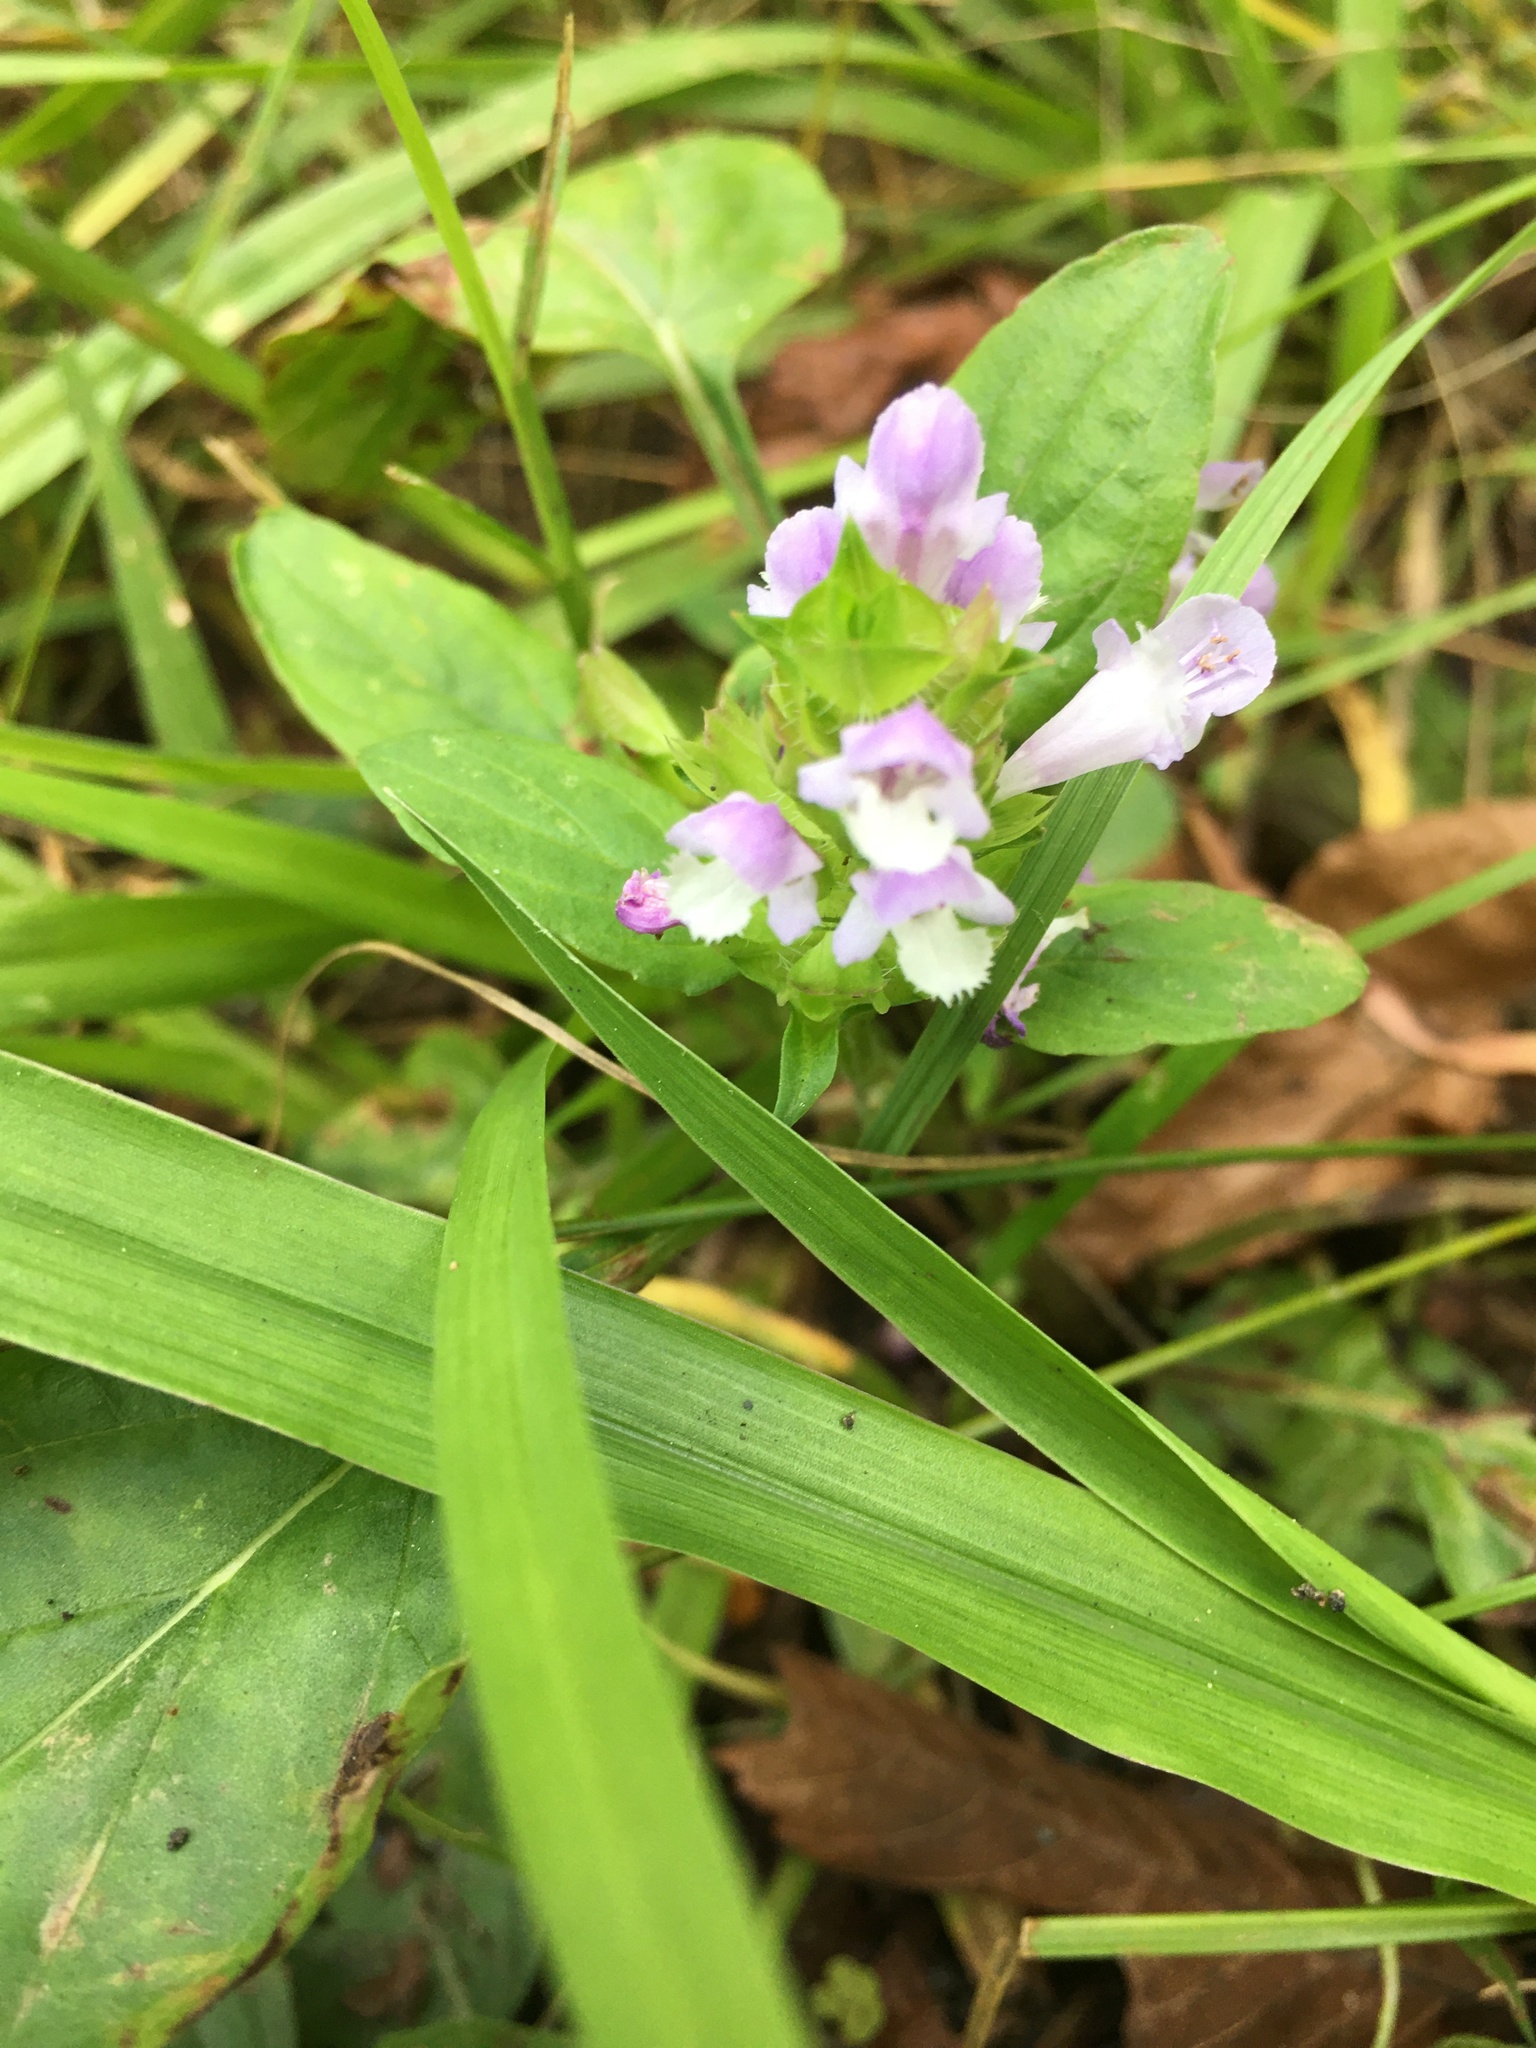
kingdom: Plantae
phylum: Tracheophyta
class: Magnoliopsida
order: Lamiales
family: Lamiaceae
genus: Prunella
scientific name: Prunella vulgaris
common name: Heal-all
